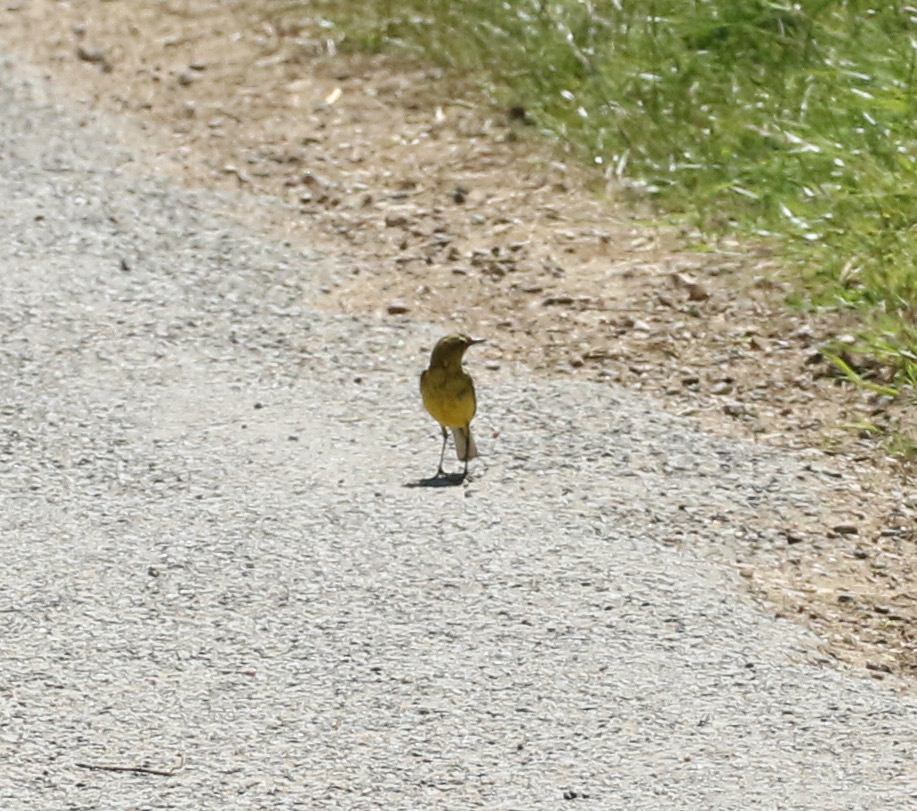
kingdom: Animalia
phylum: Chordata
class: Aves
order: Passeriformes
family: Motacillidae
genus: Motacilla
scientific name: Motacilla flava
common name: Western yellow wagtail
